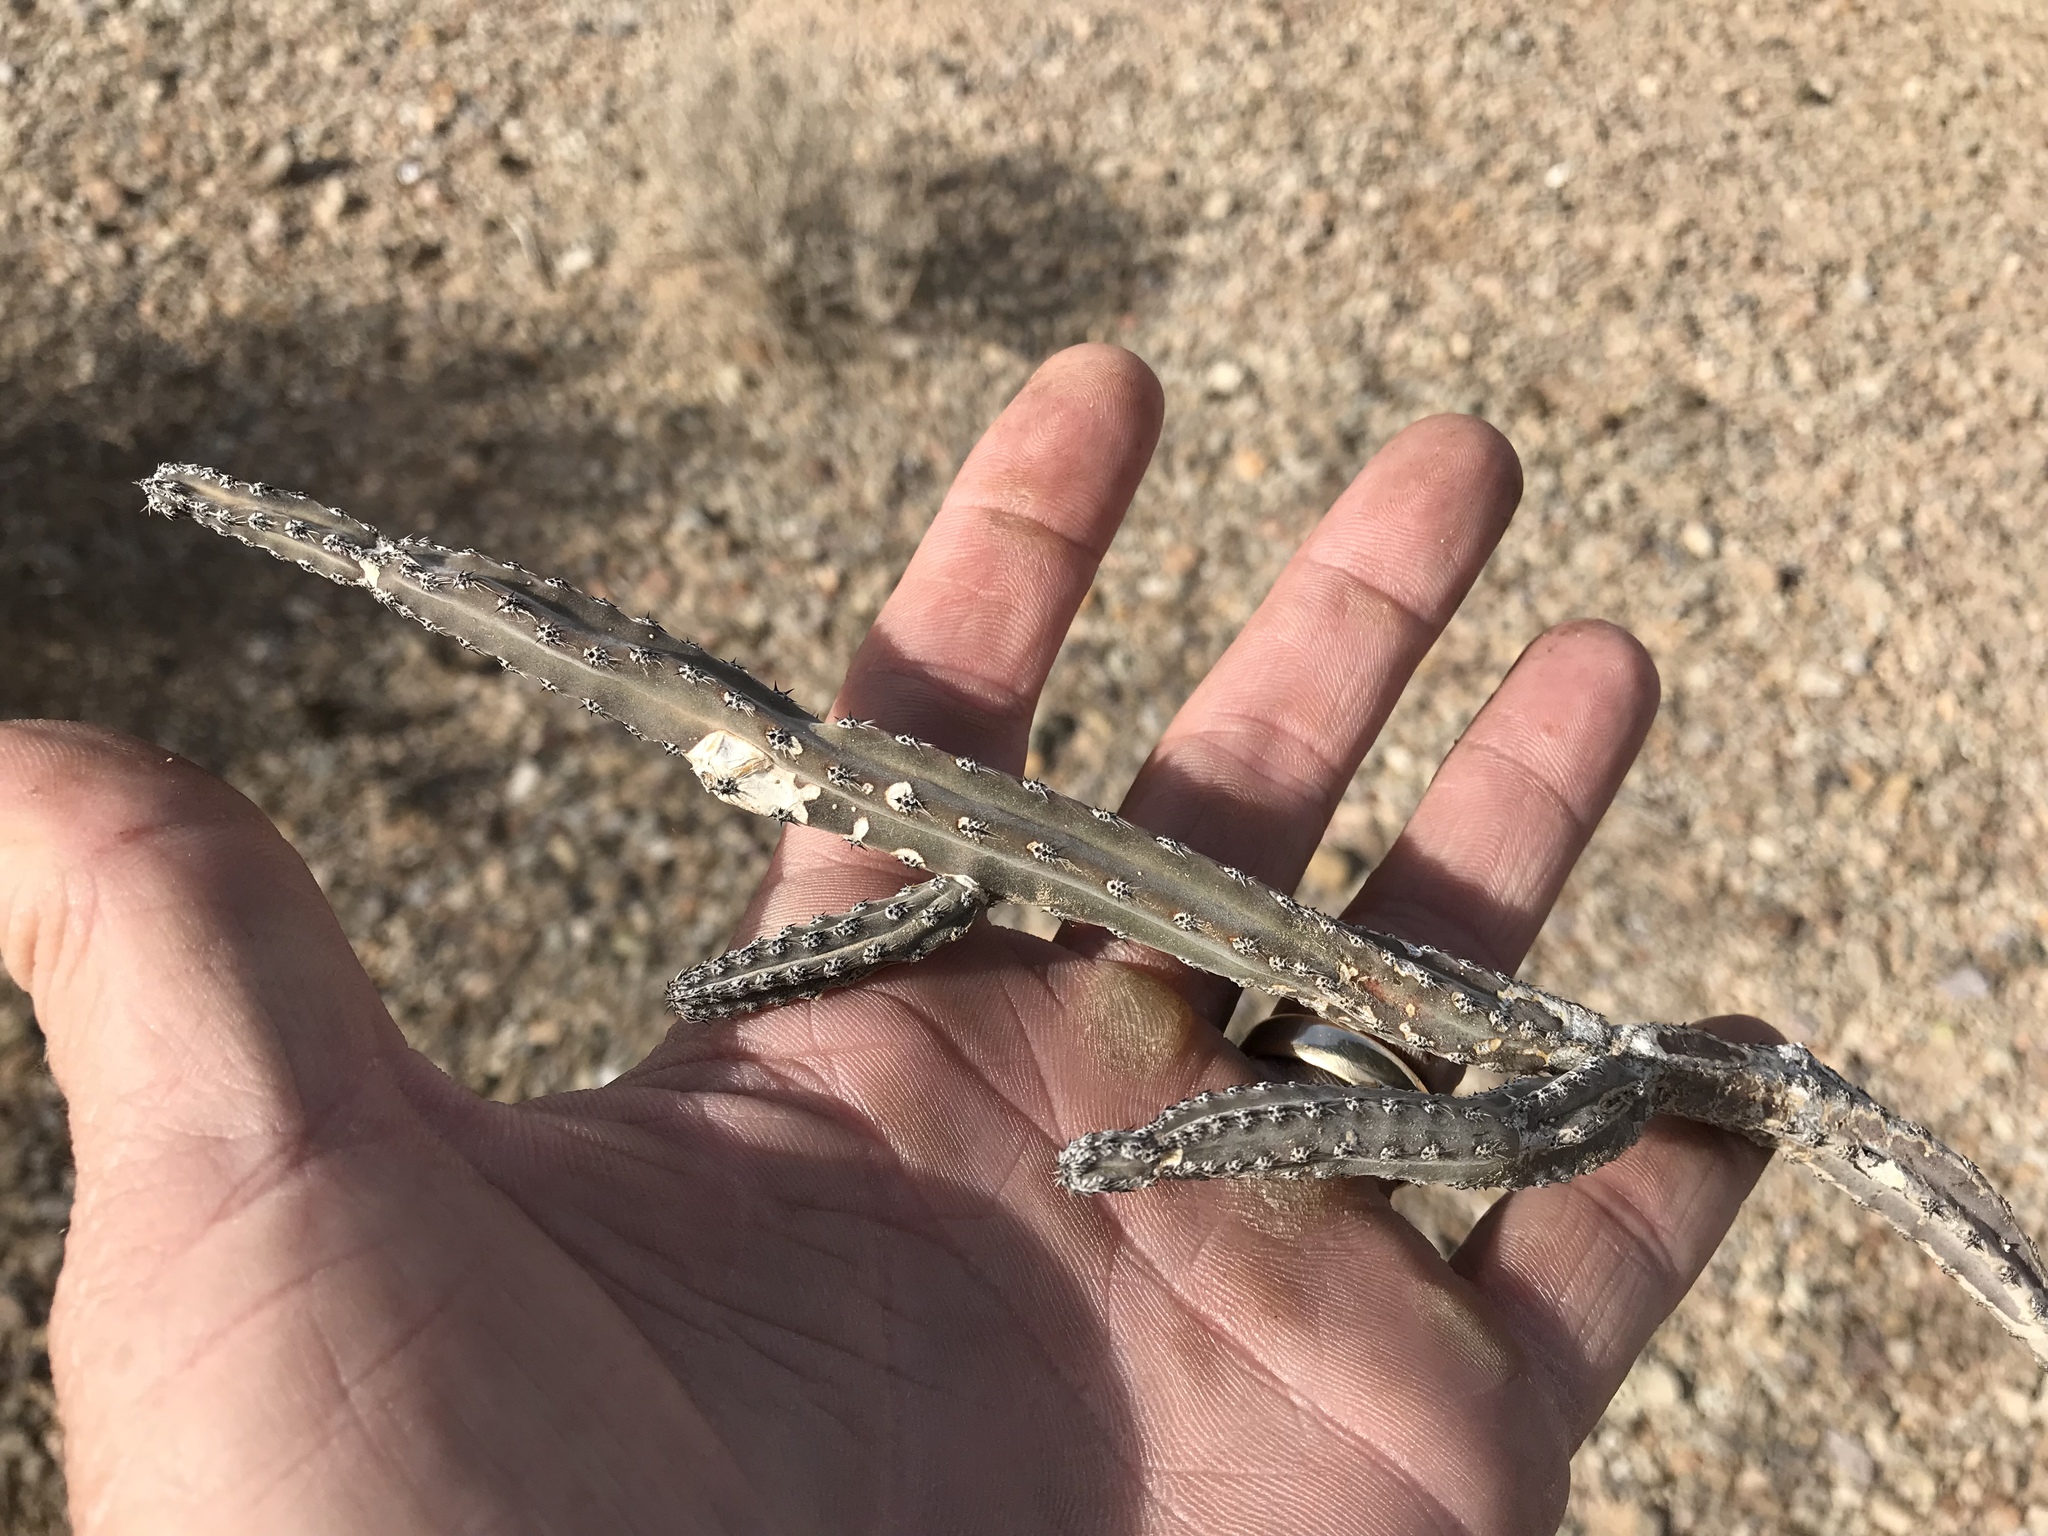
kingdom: Plantae
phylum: Tracheophyta
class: Magnoliopsida
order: Caryophyllales
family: Cactaceae
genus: Peniocereus
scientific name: Peniocereus greggii
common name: Desert night-blooming cereus
